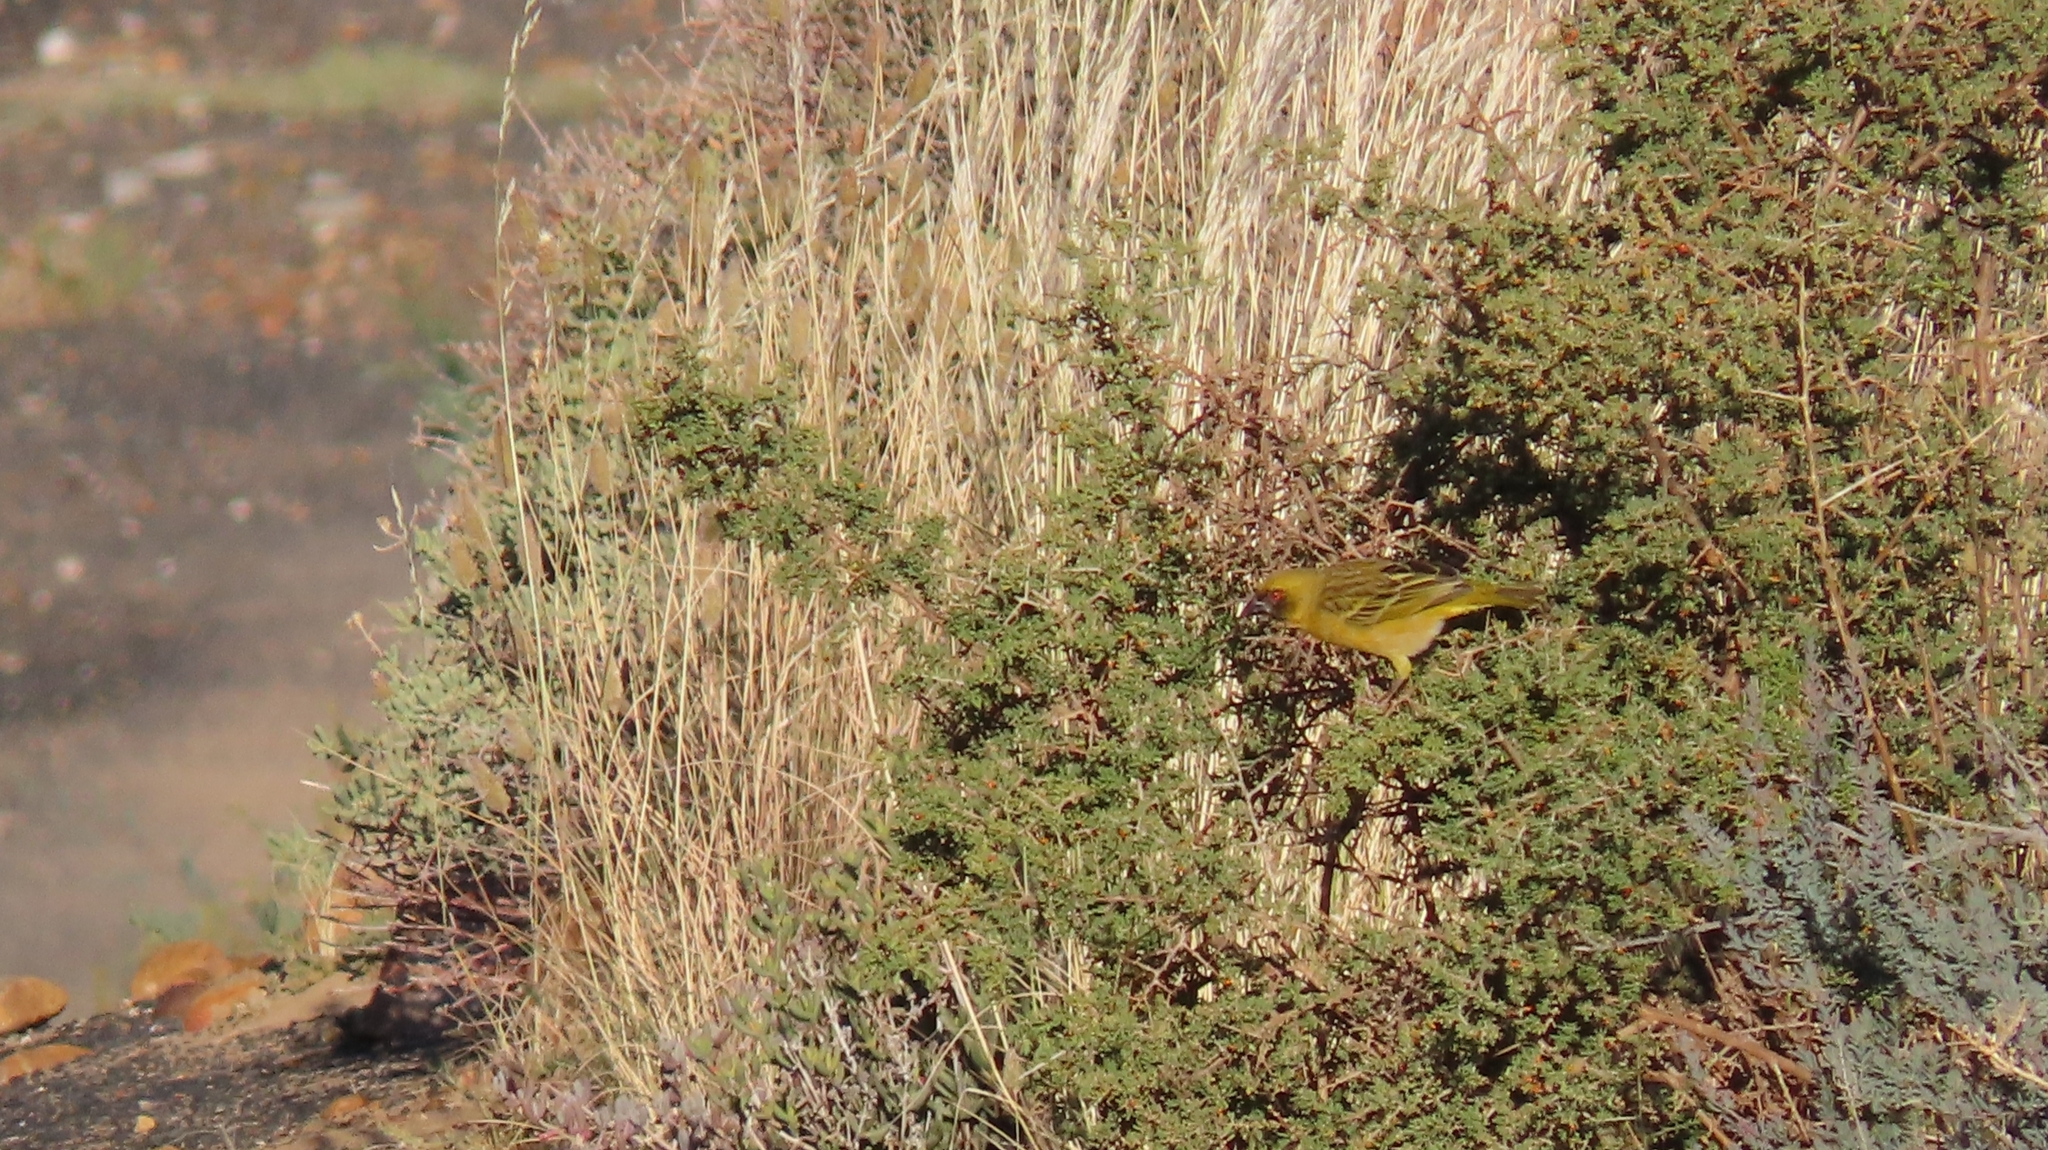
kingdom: Animalia
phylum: Chordata
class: Aves
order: Passeriformes
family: Ploceidae
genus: Ploceus
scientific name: Ploceus velatus
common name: Southern masked weaver
